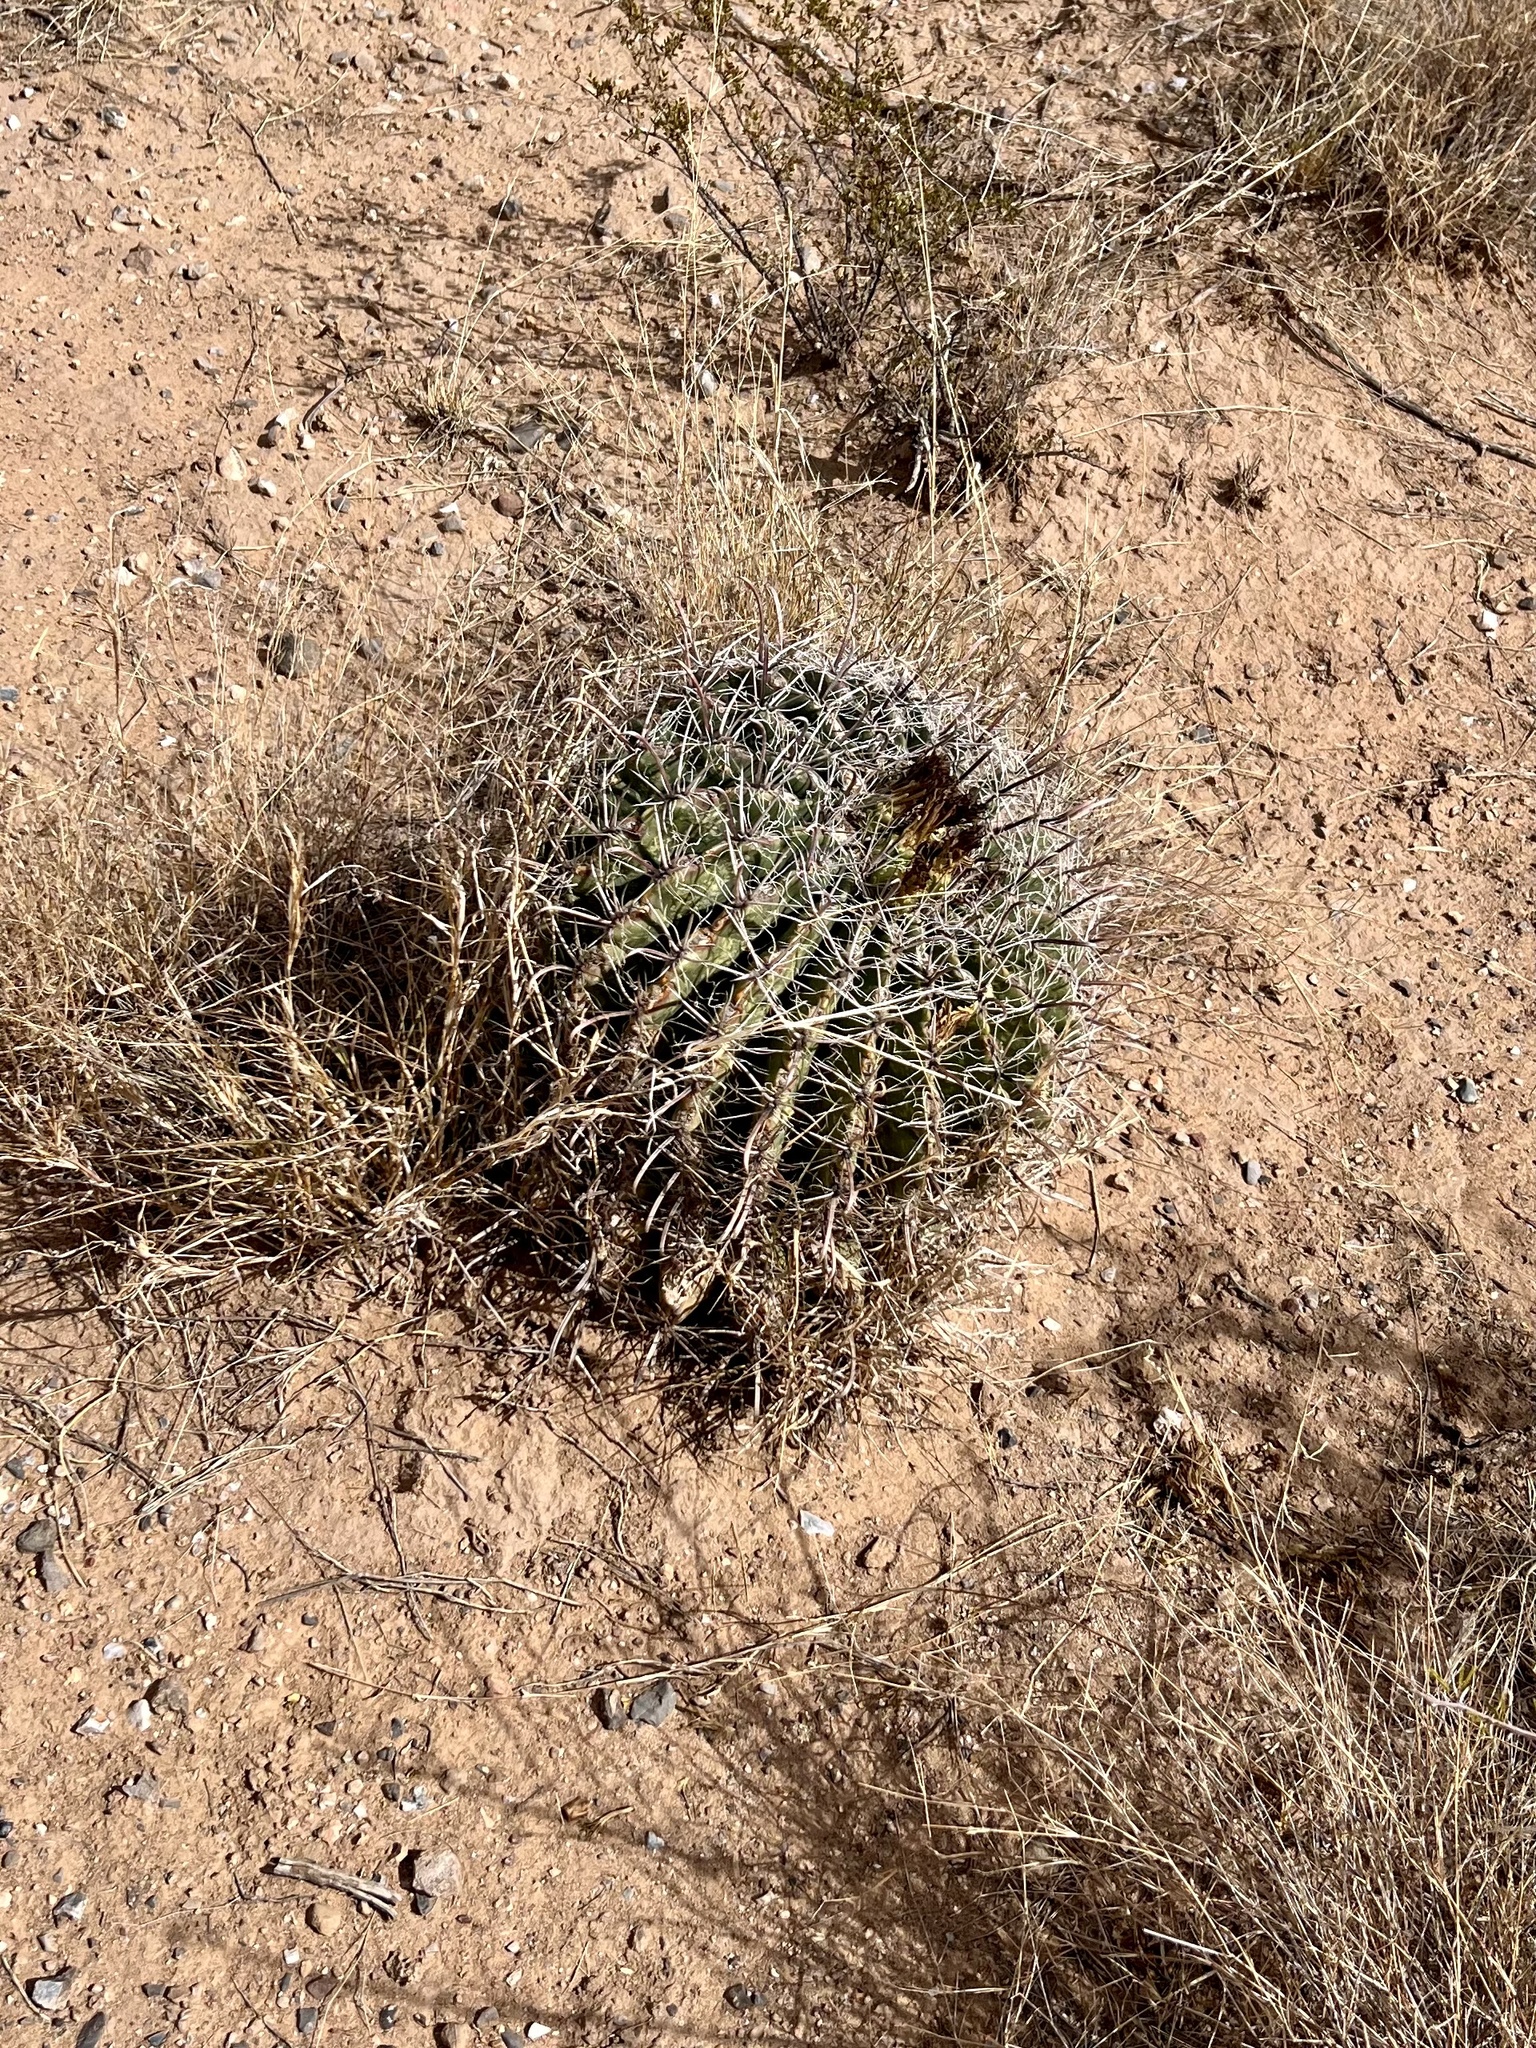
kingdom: Plantae
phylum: Tracheophyta
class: Magnoliopsida
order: Caryophyllales
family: Cactaceae
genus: Ferocactus
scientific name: Ferocactus wislizeni
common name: Candy barrel cactus
